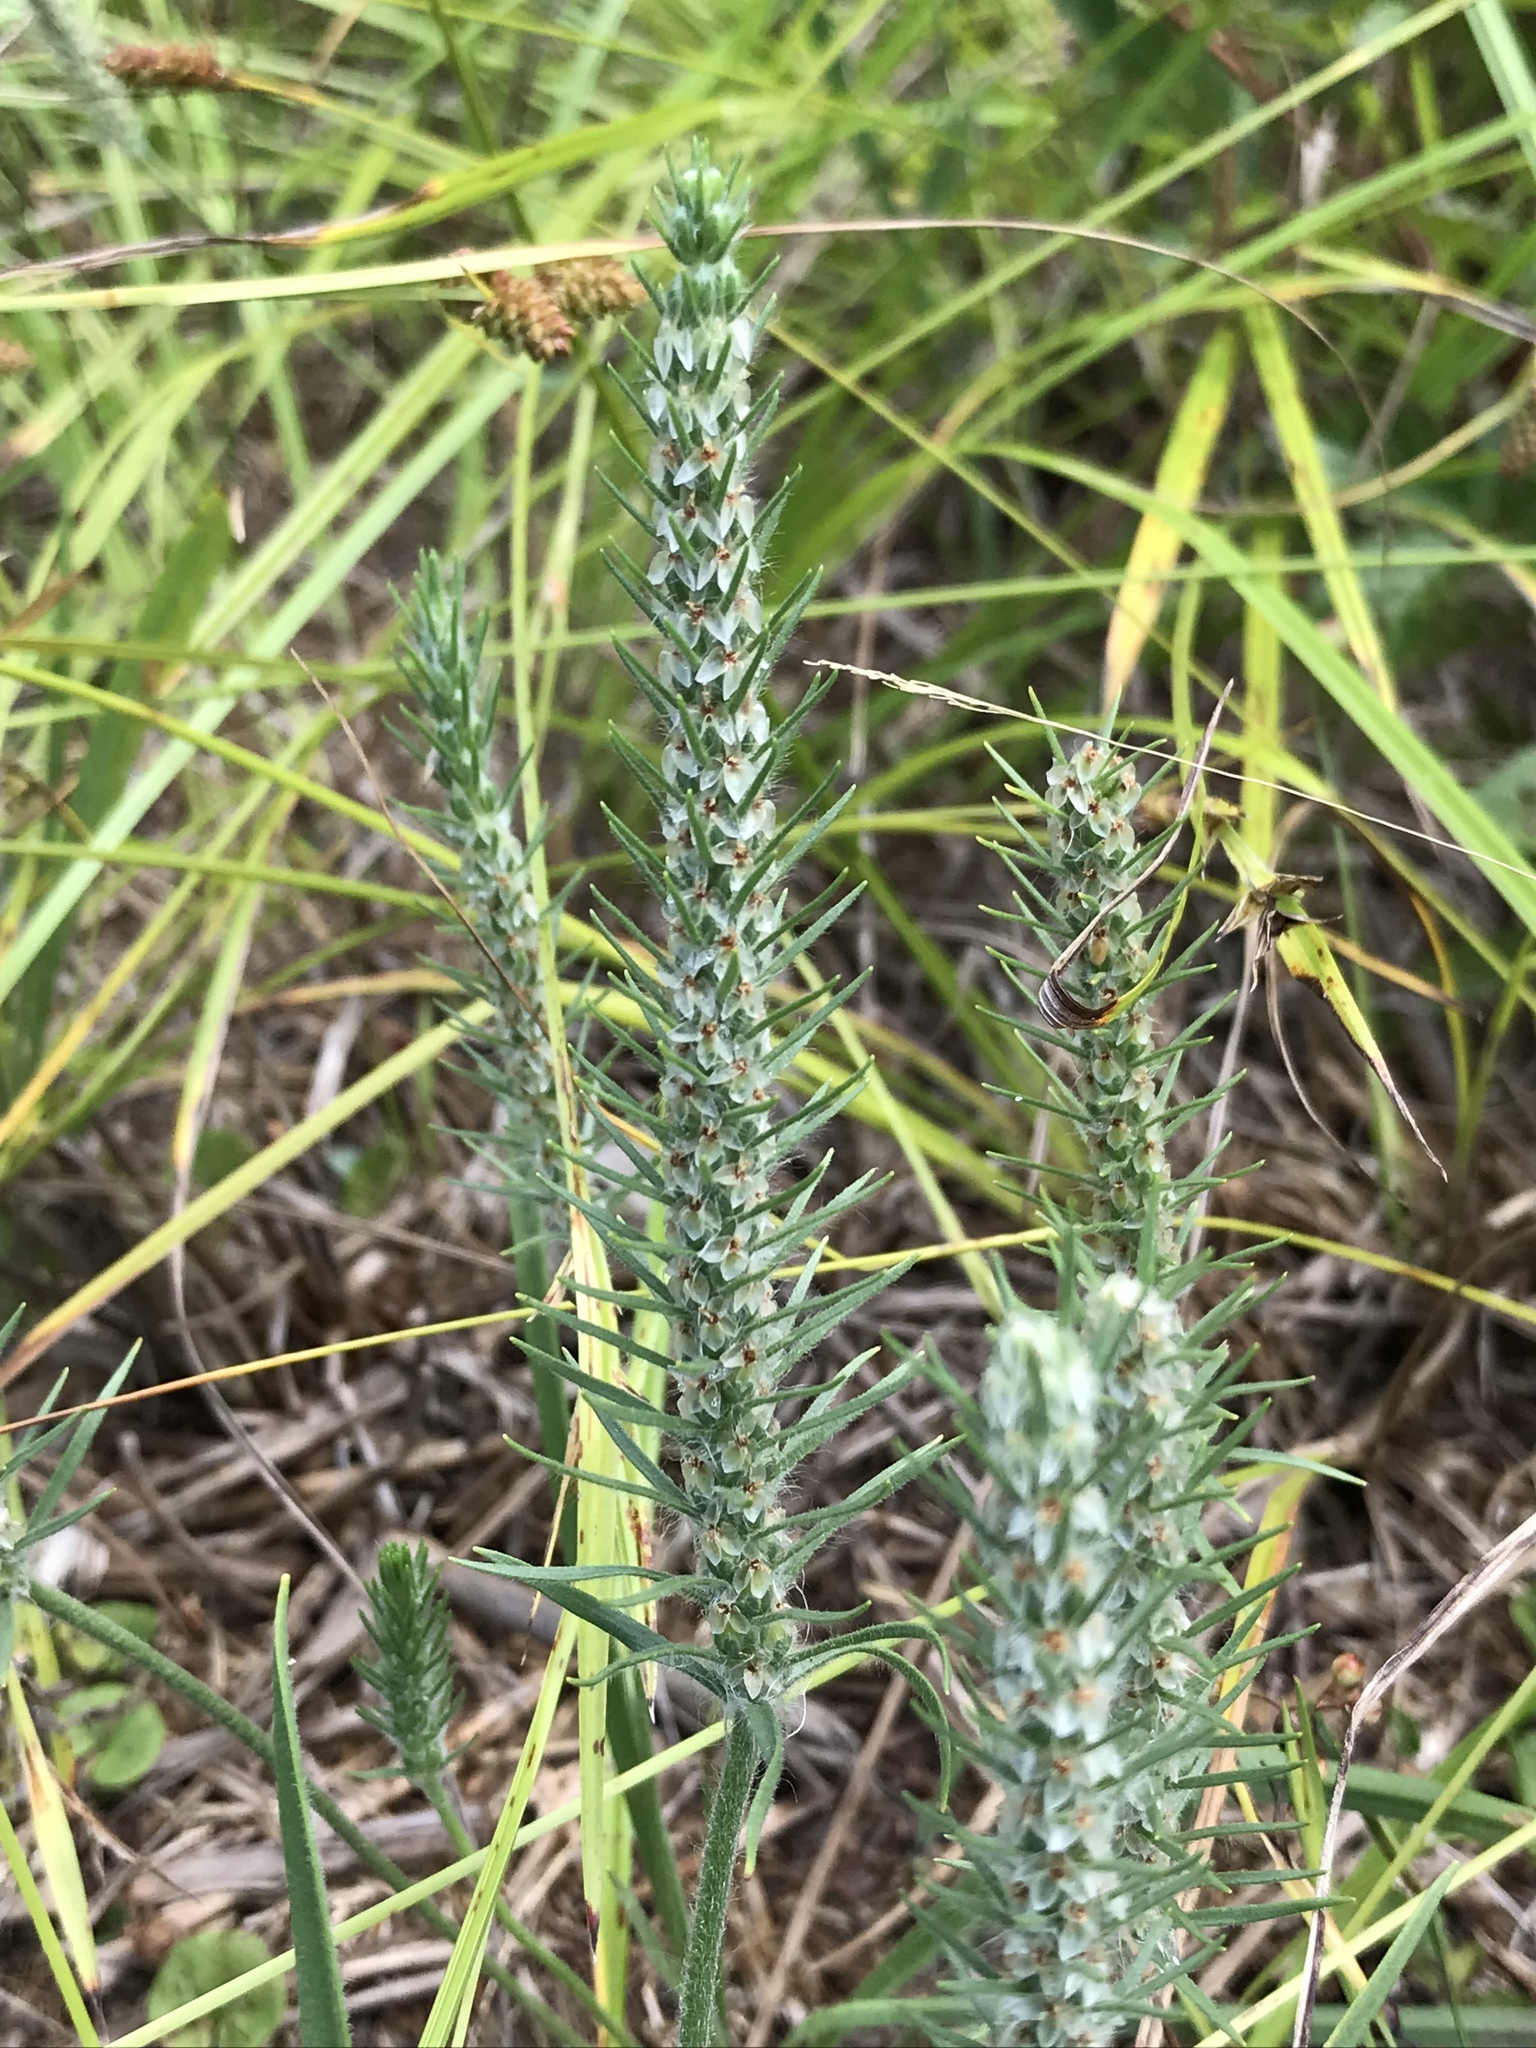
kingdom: Plantae
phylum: Tracheophyta
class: Magnoliopsida
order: Lamiales
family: Plantaginaceae
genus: Plantago
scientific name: Plantago aristata
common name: Bracted plantain
